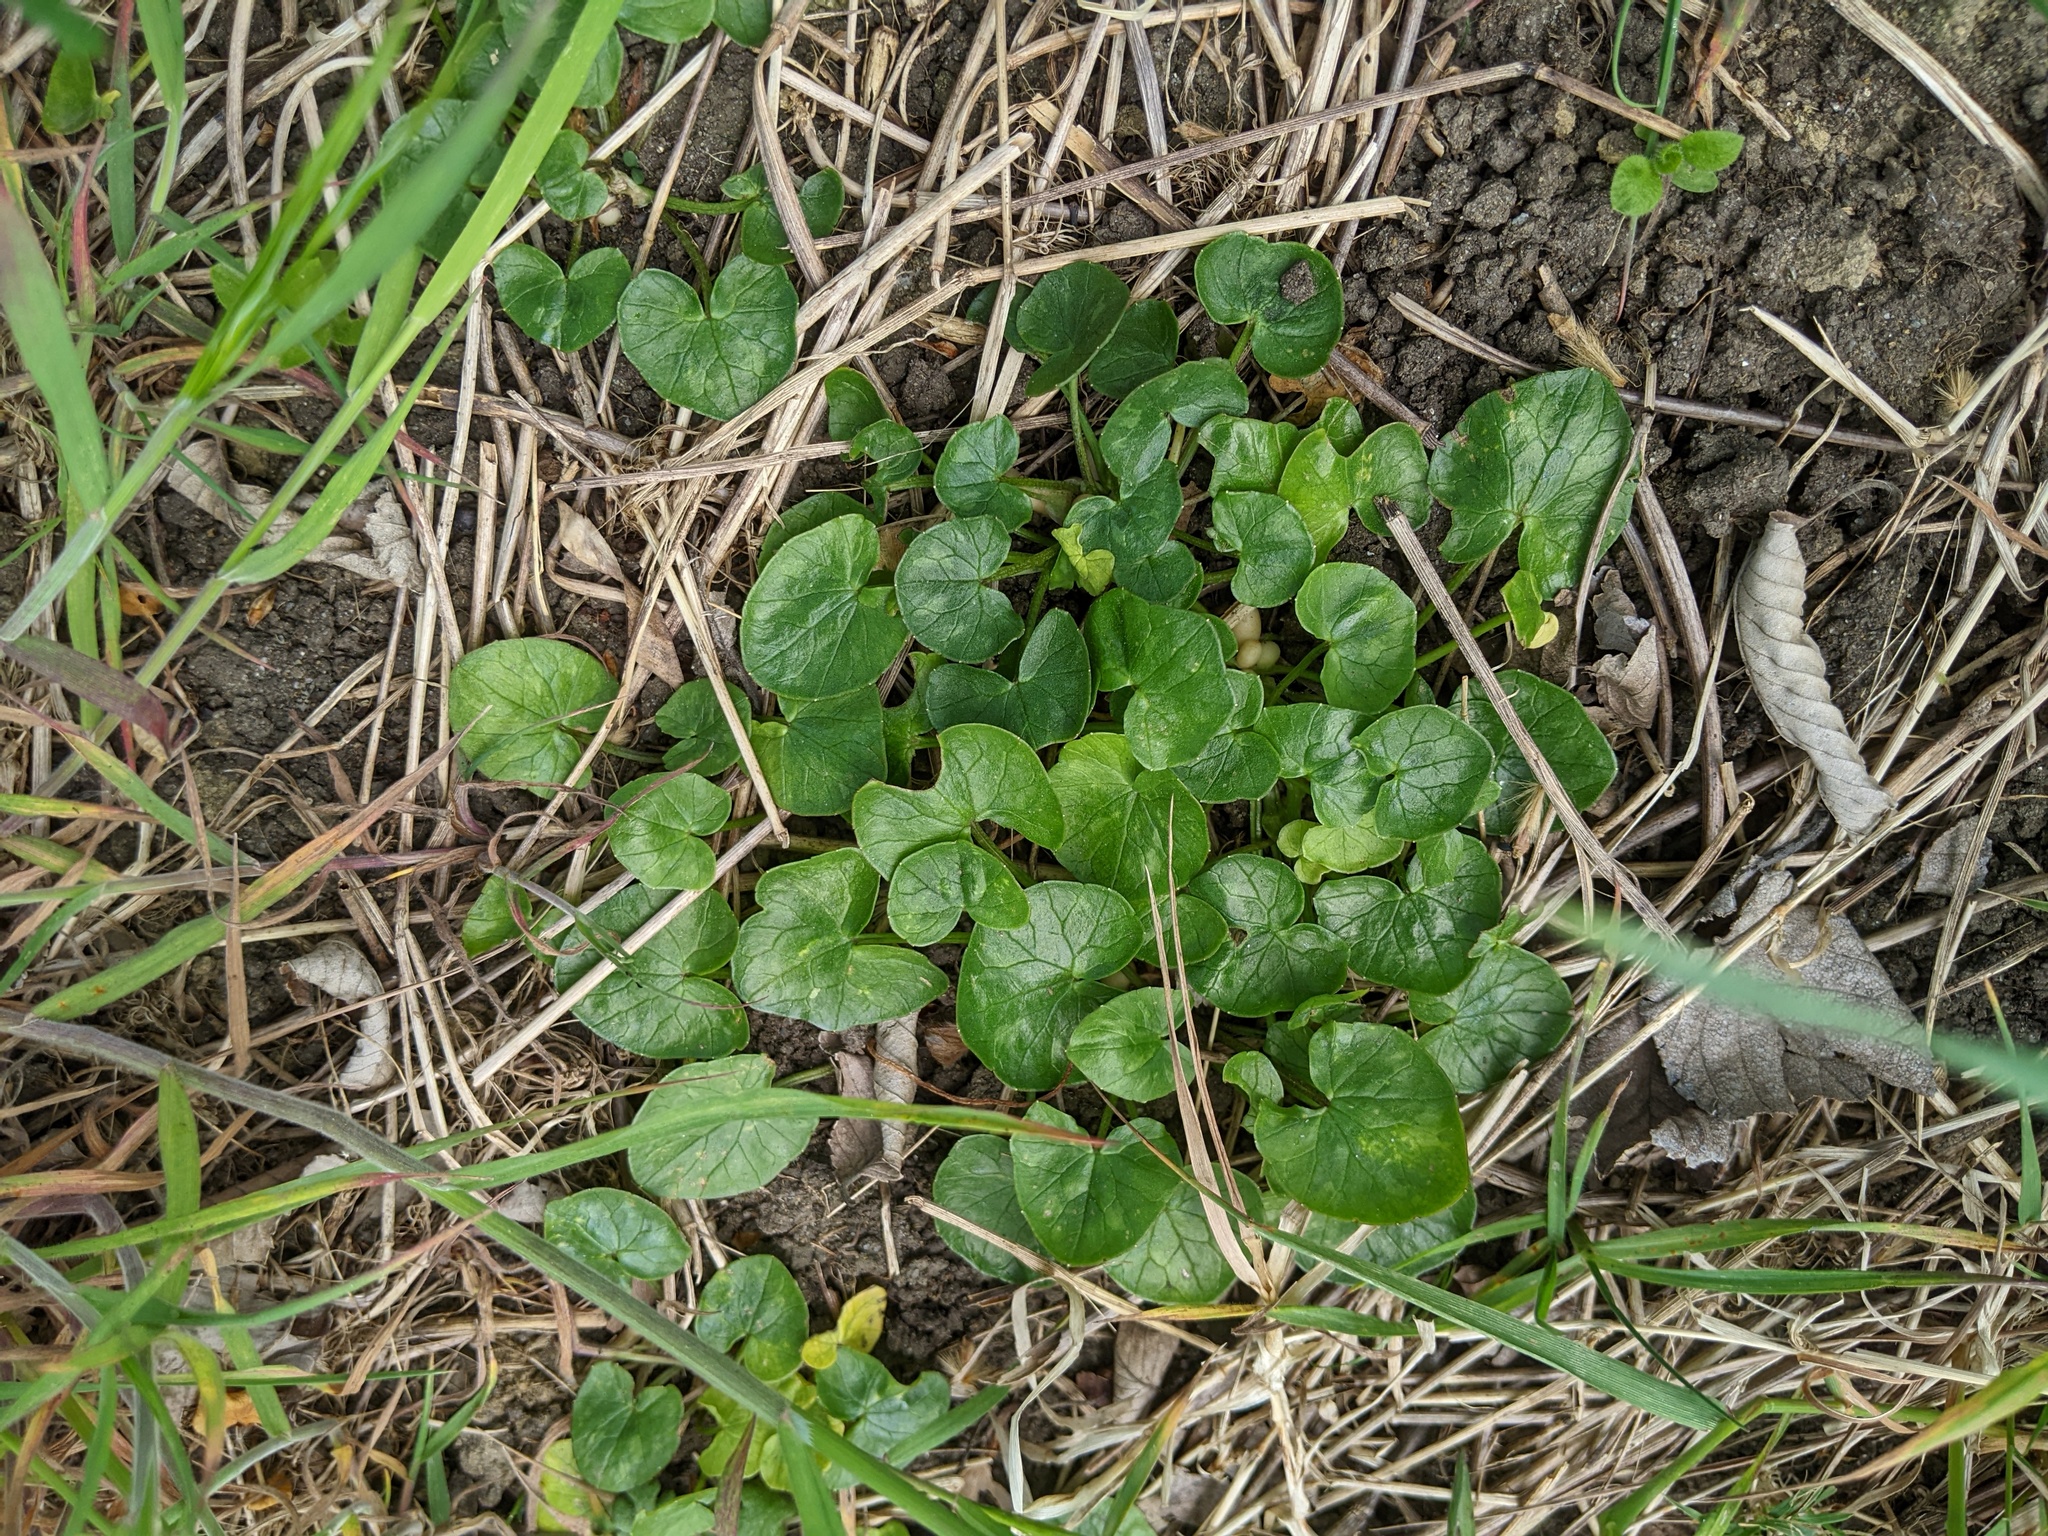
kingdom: Plantae
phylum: Tracheophyta
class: Magnoliopsida
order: Ranunculales
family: Ranunculaceae
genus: Ficaria
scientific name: Ficaria verna
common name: Lesser celandine
